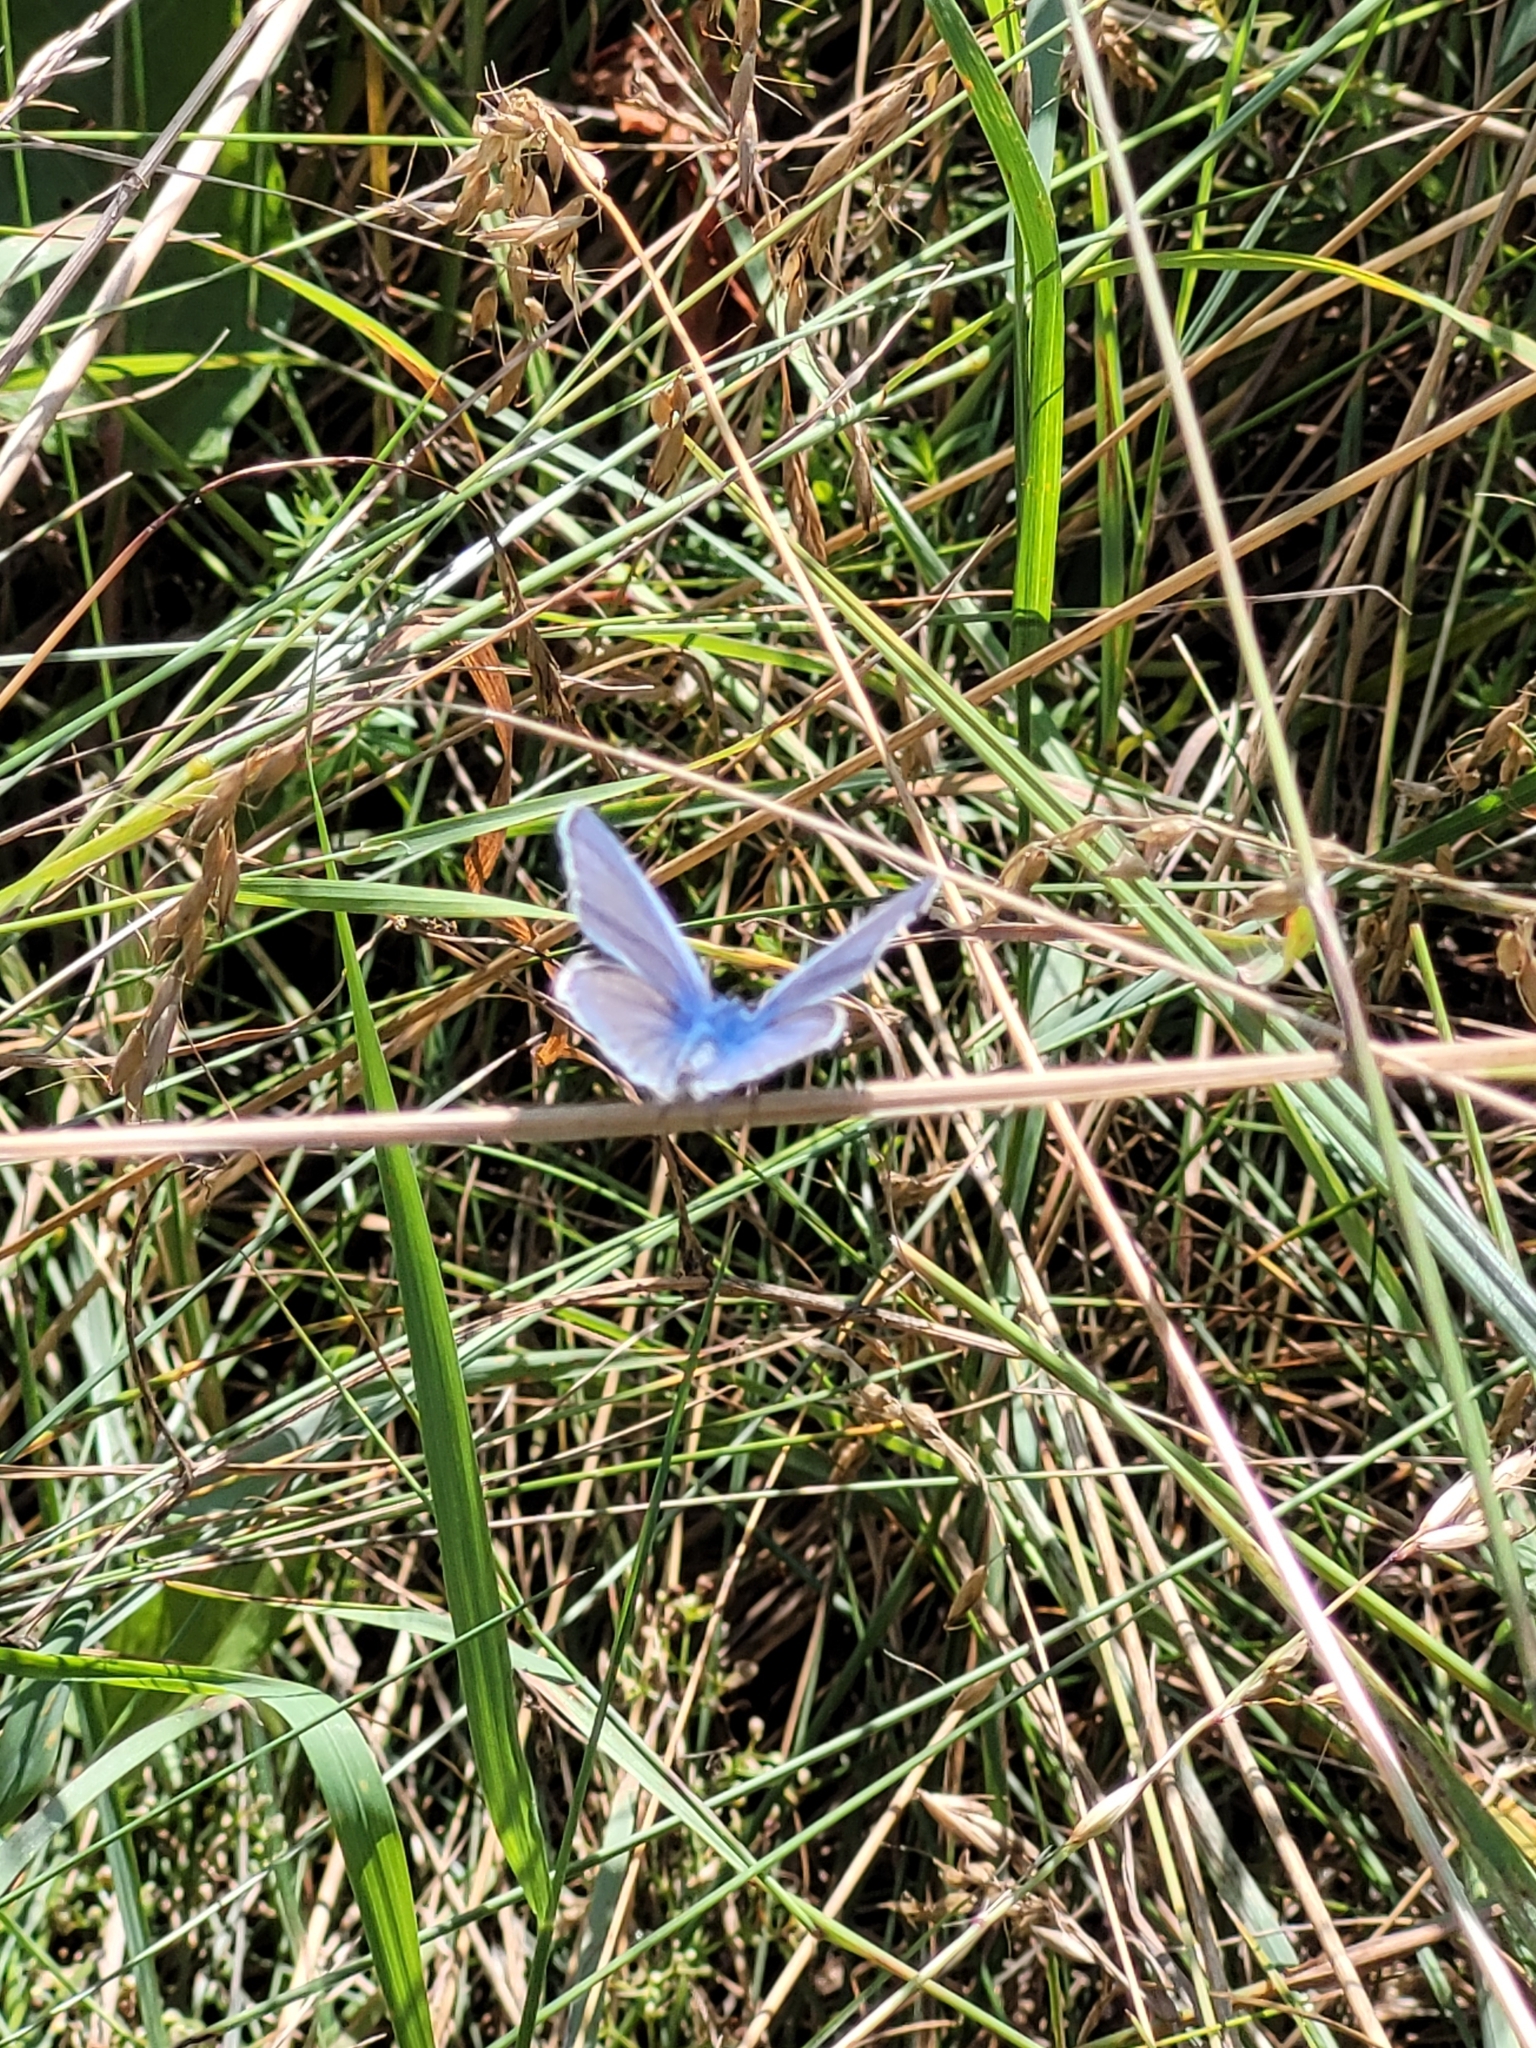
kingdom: Animalia
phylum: Arthropoda
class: Insecta
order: Lepidoptera
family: Lycaenidae
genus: Polyommatus
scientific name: Polyommatus icarus
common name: Common blue
